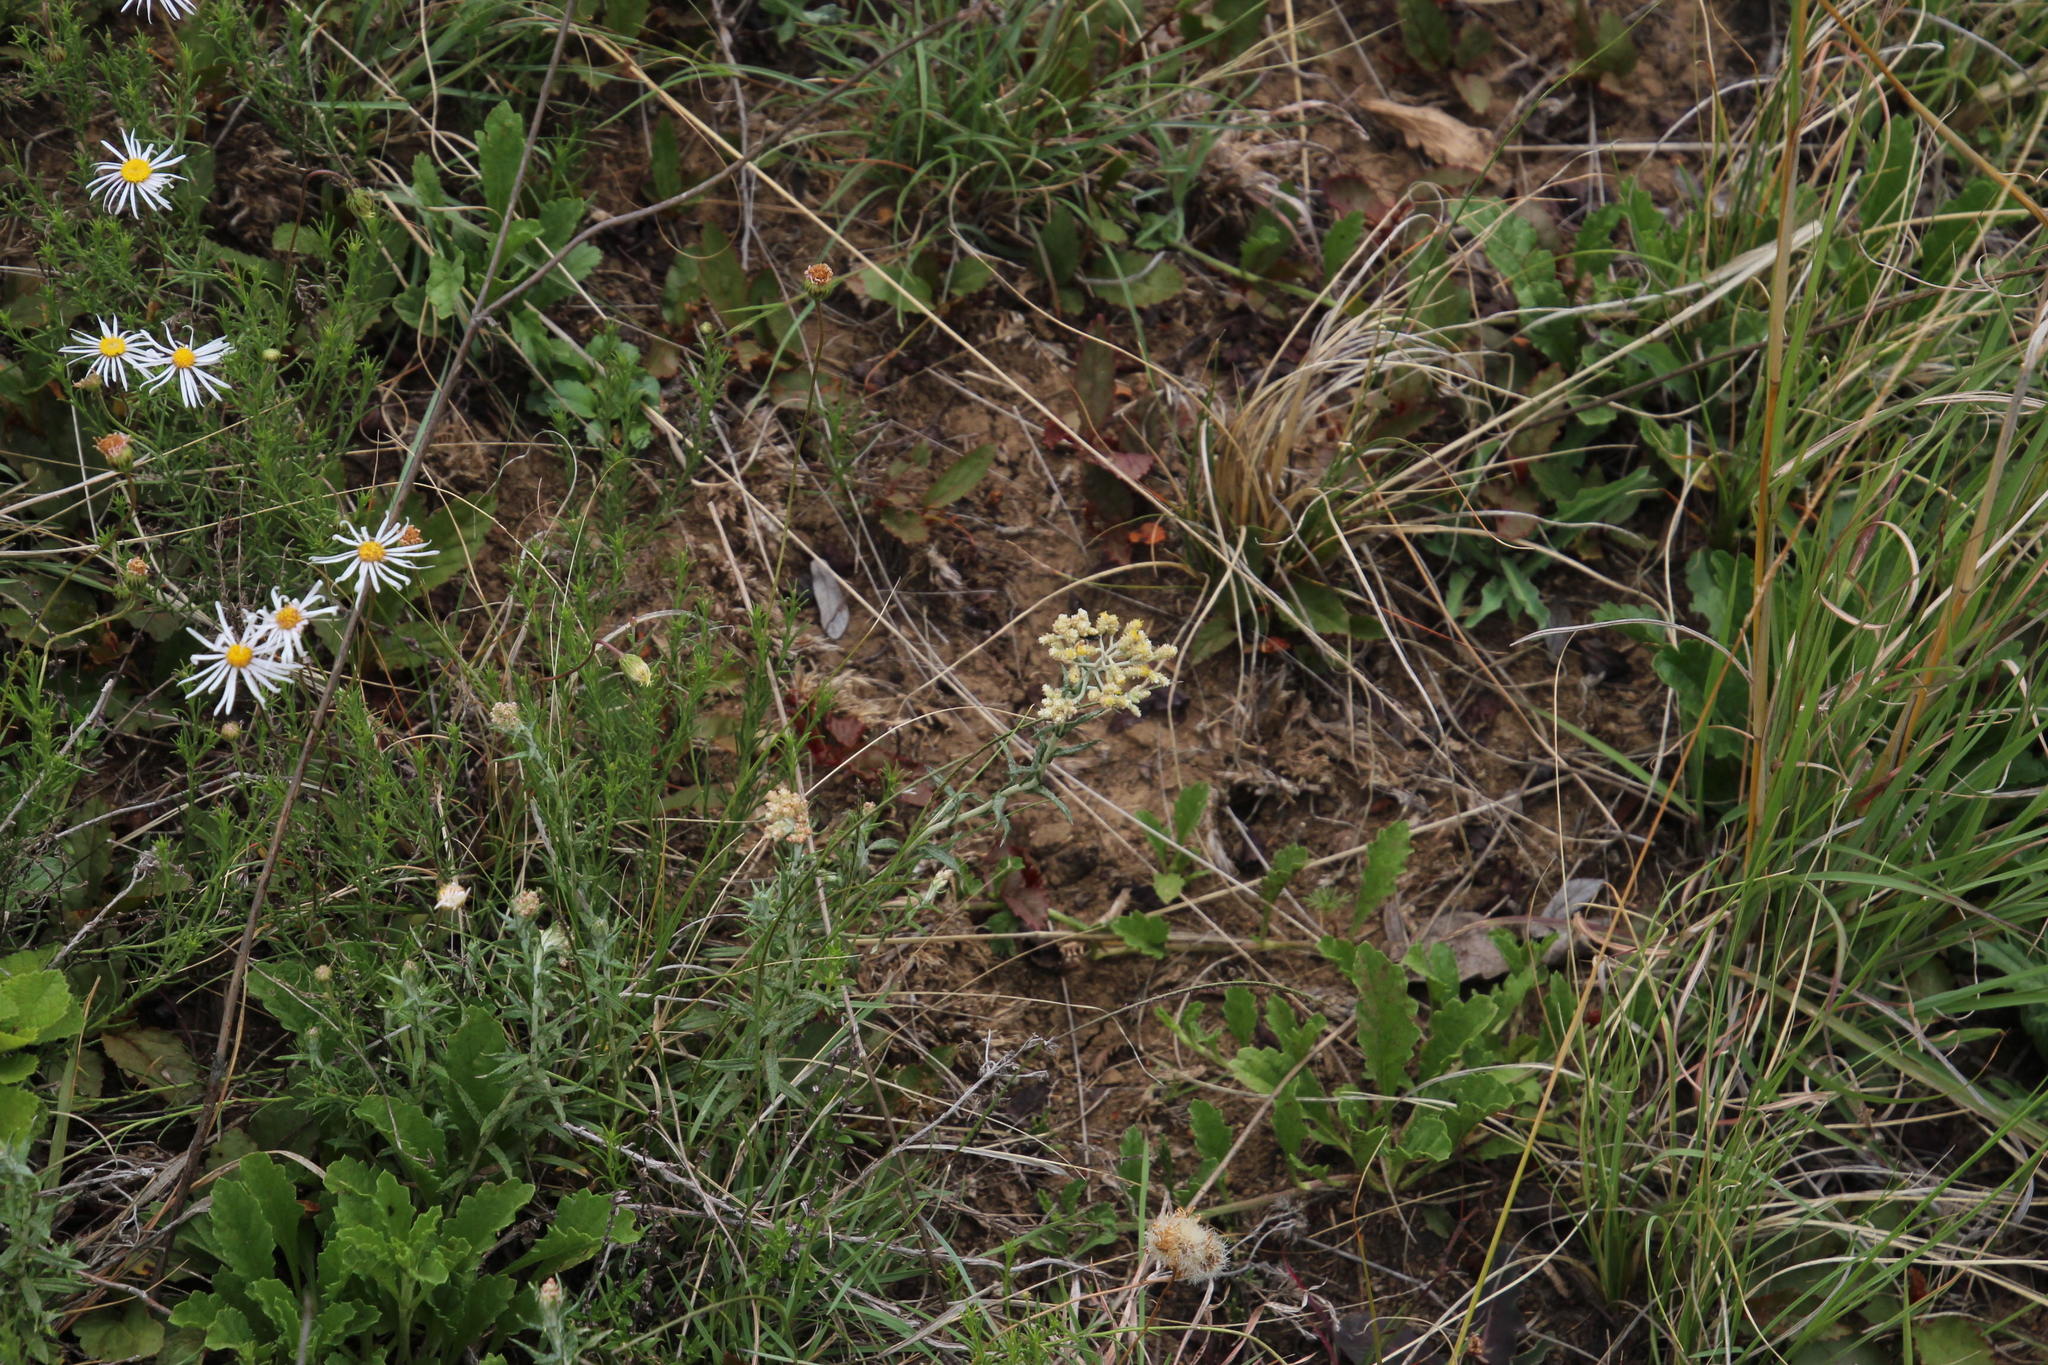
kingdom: Plantae
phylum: Tracheophyta
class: Magnoliopsida
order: Asterales
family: Asteraceae
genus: Helichrysum
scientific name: Helichrysum rugulosum
